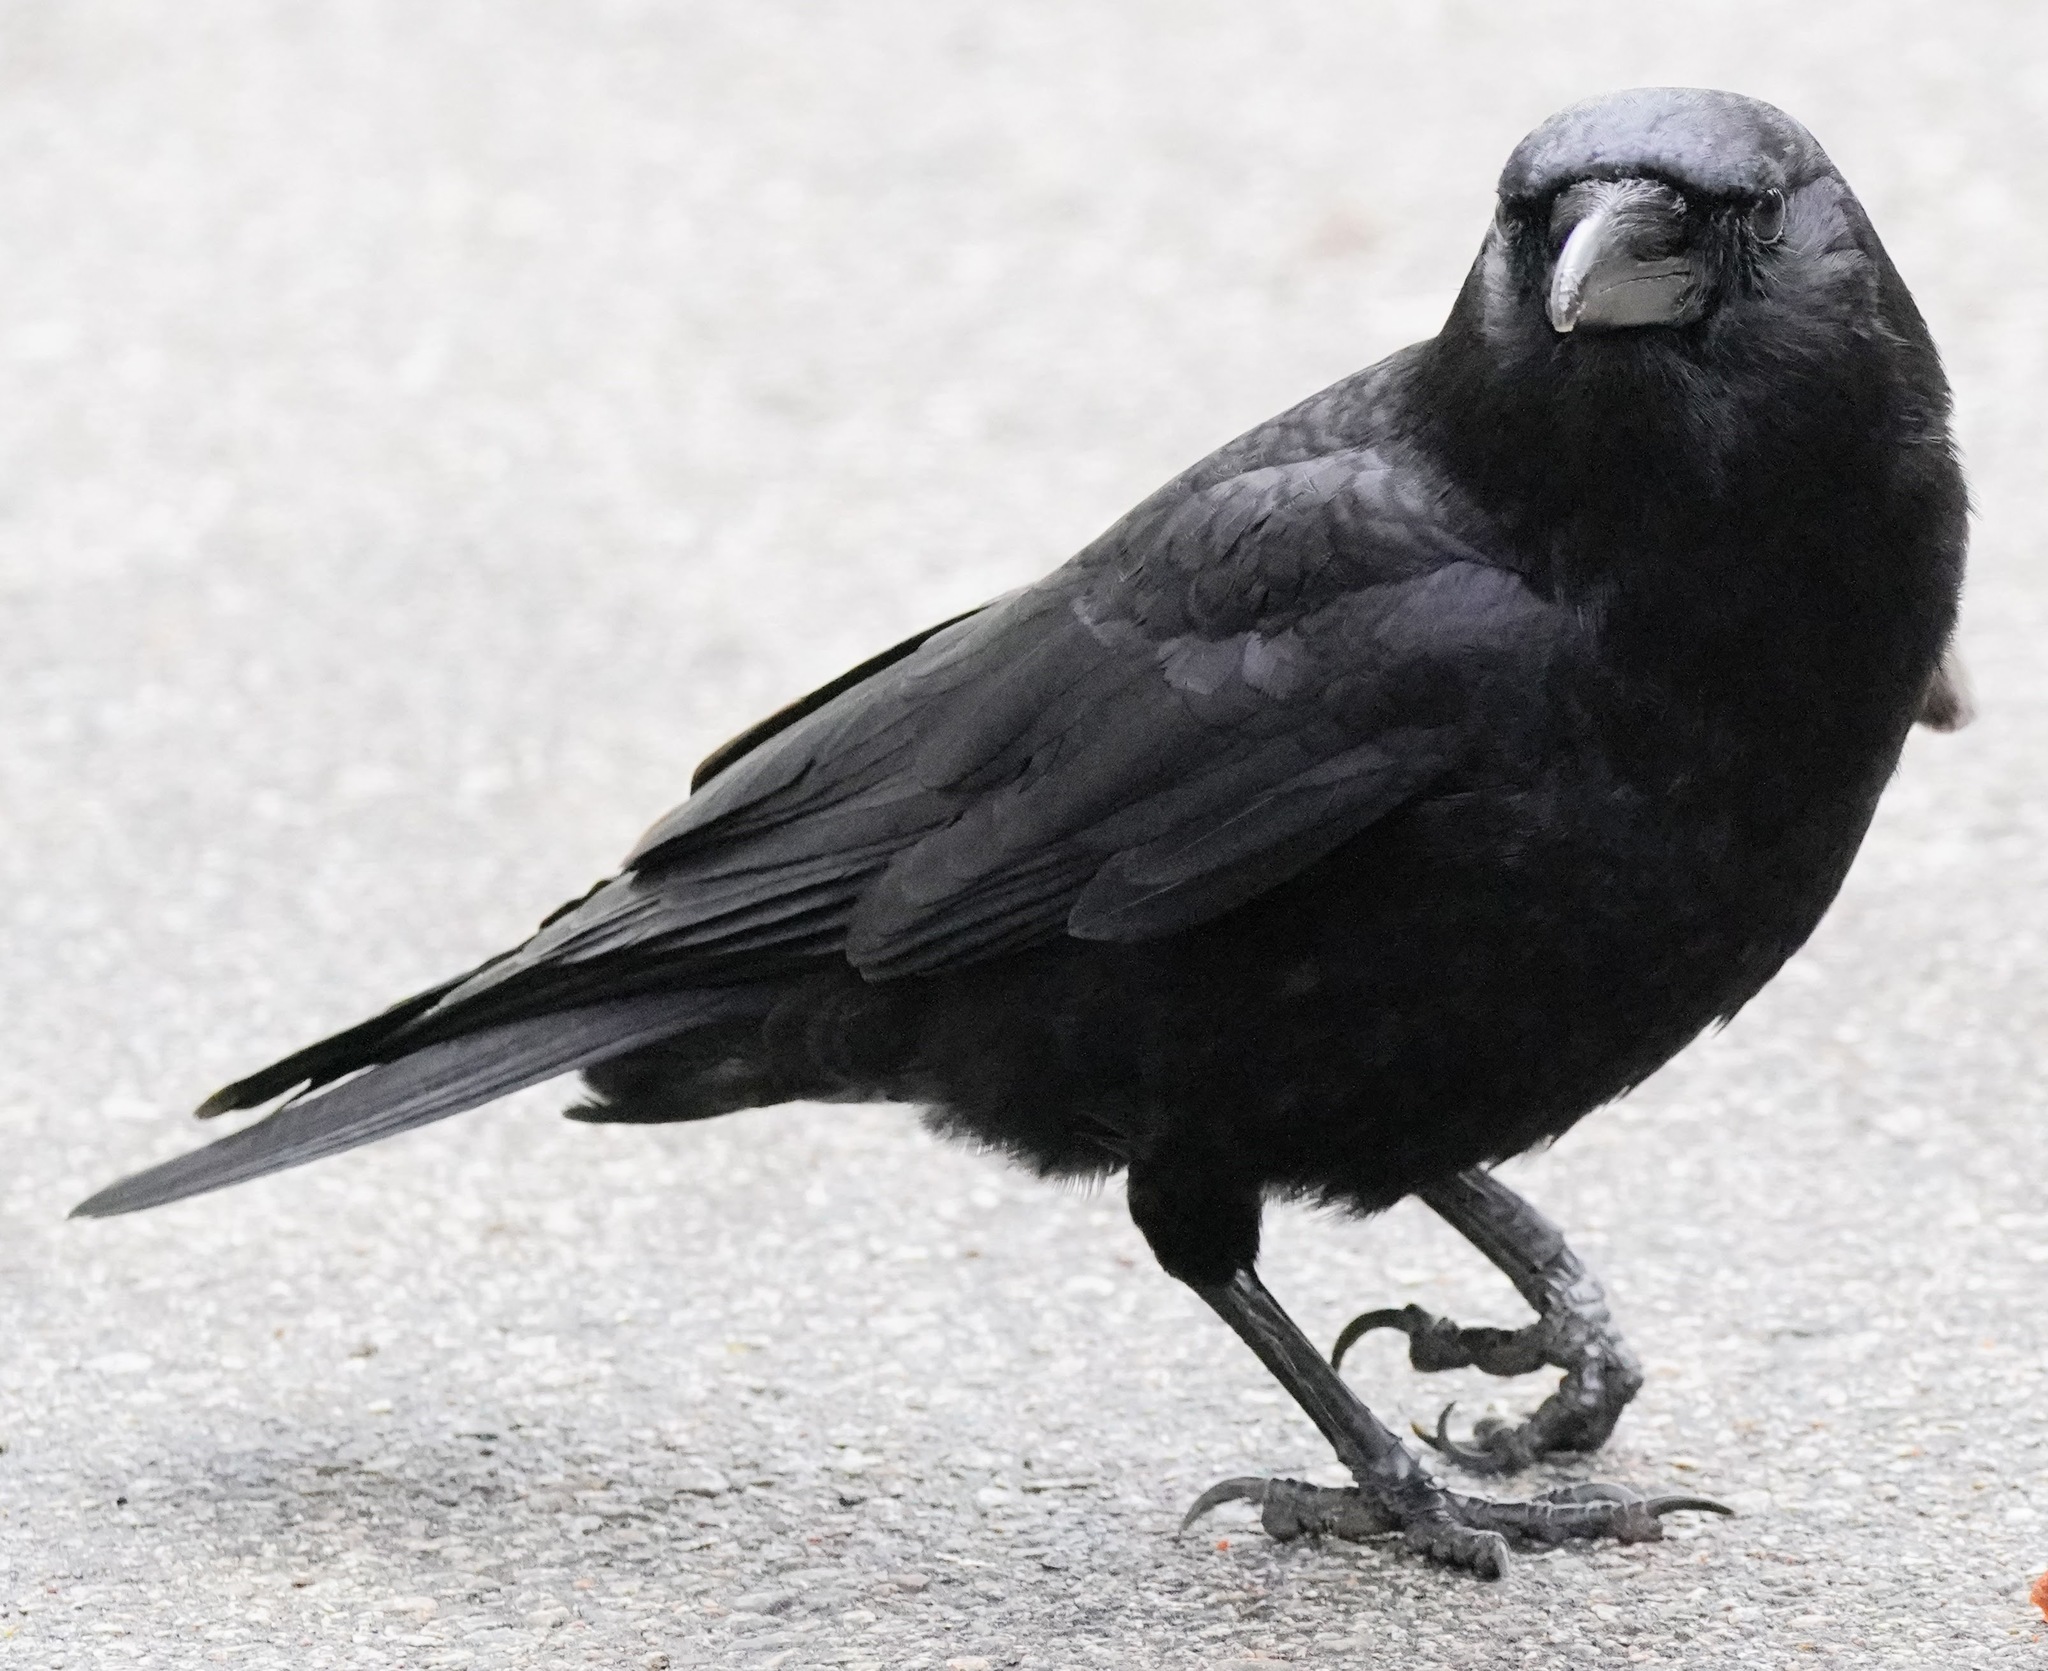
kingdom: Animalia
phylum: Chordata
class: Aves
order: Passeriformes
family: Corvidae
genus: Corvus
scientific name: Corvus brachyrhynchos
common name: American crow
